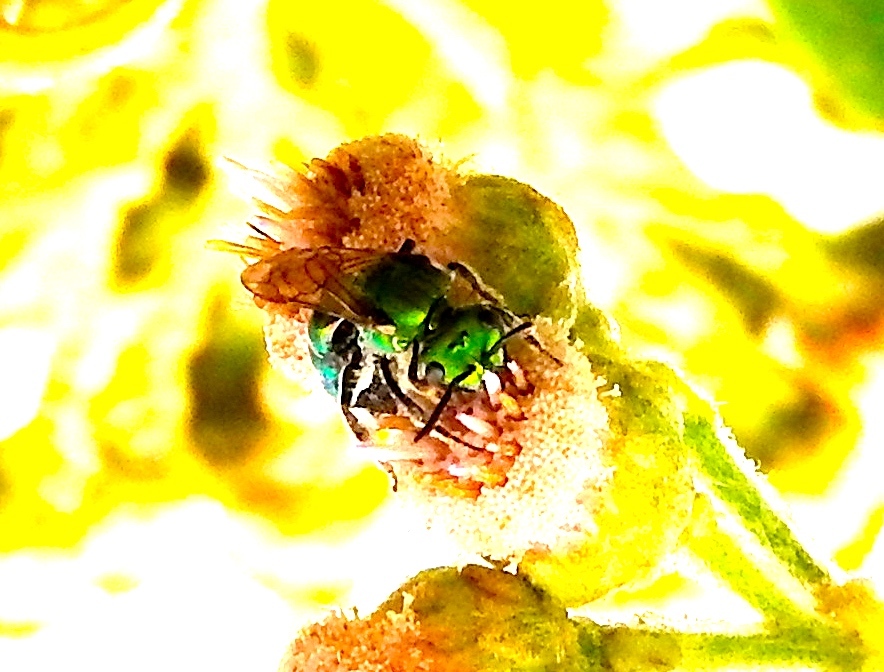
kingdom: Animalia
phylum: Arthropoda
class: Insecta
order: Hymenoptera
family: Halictidae
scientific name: Halictidae
